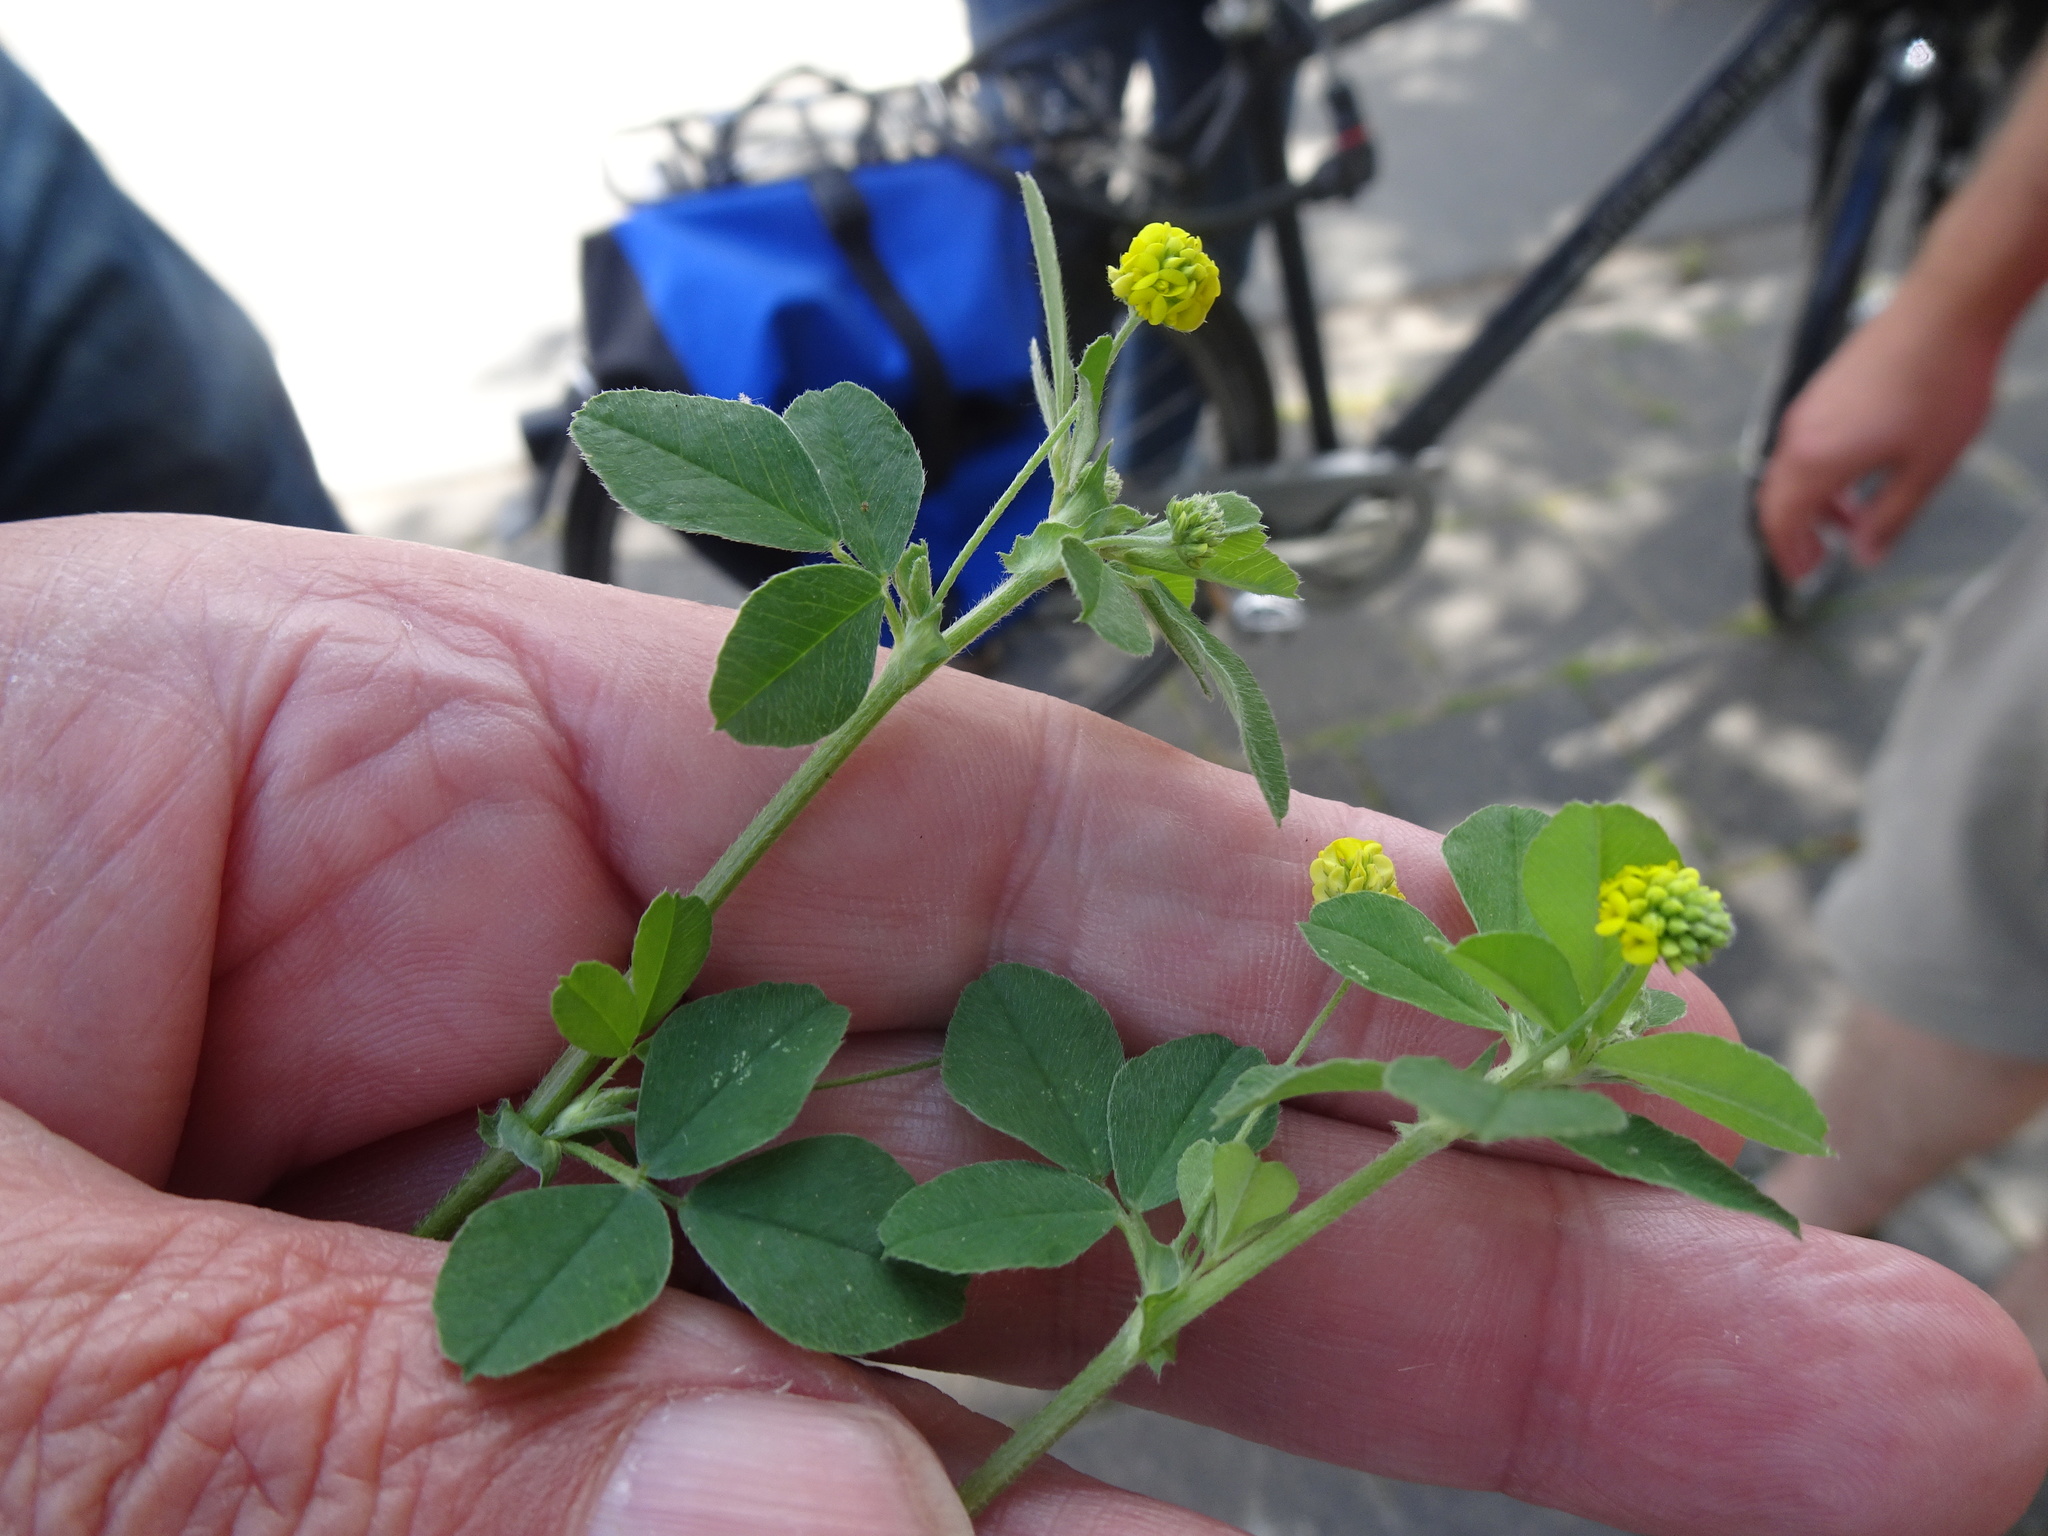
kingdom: Plantae
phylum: Tracheophyta
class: Magnoliopsida
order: Fabales
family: Fabaceae
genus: Medicago
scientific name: Medicago lupulina
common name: Black medick
